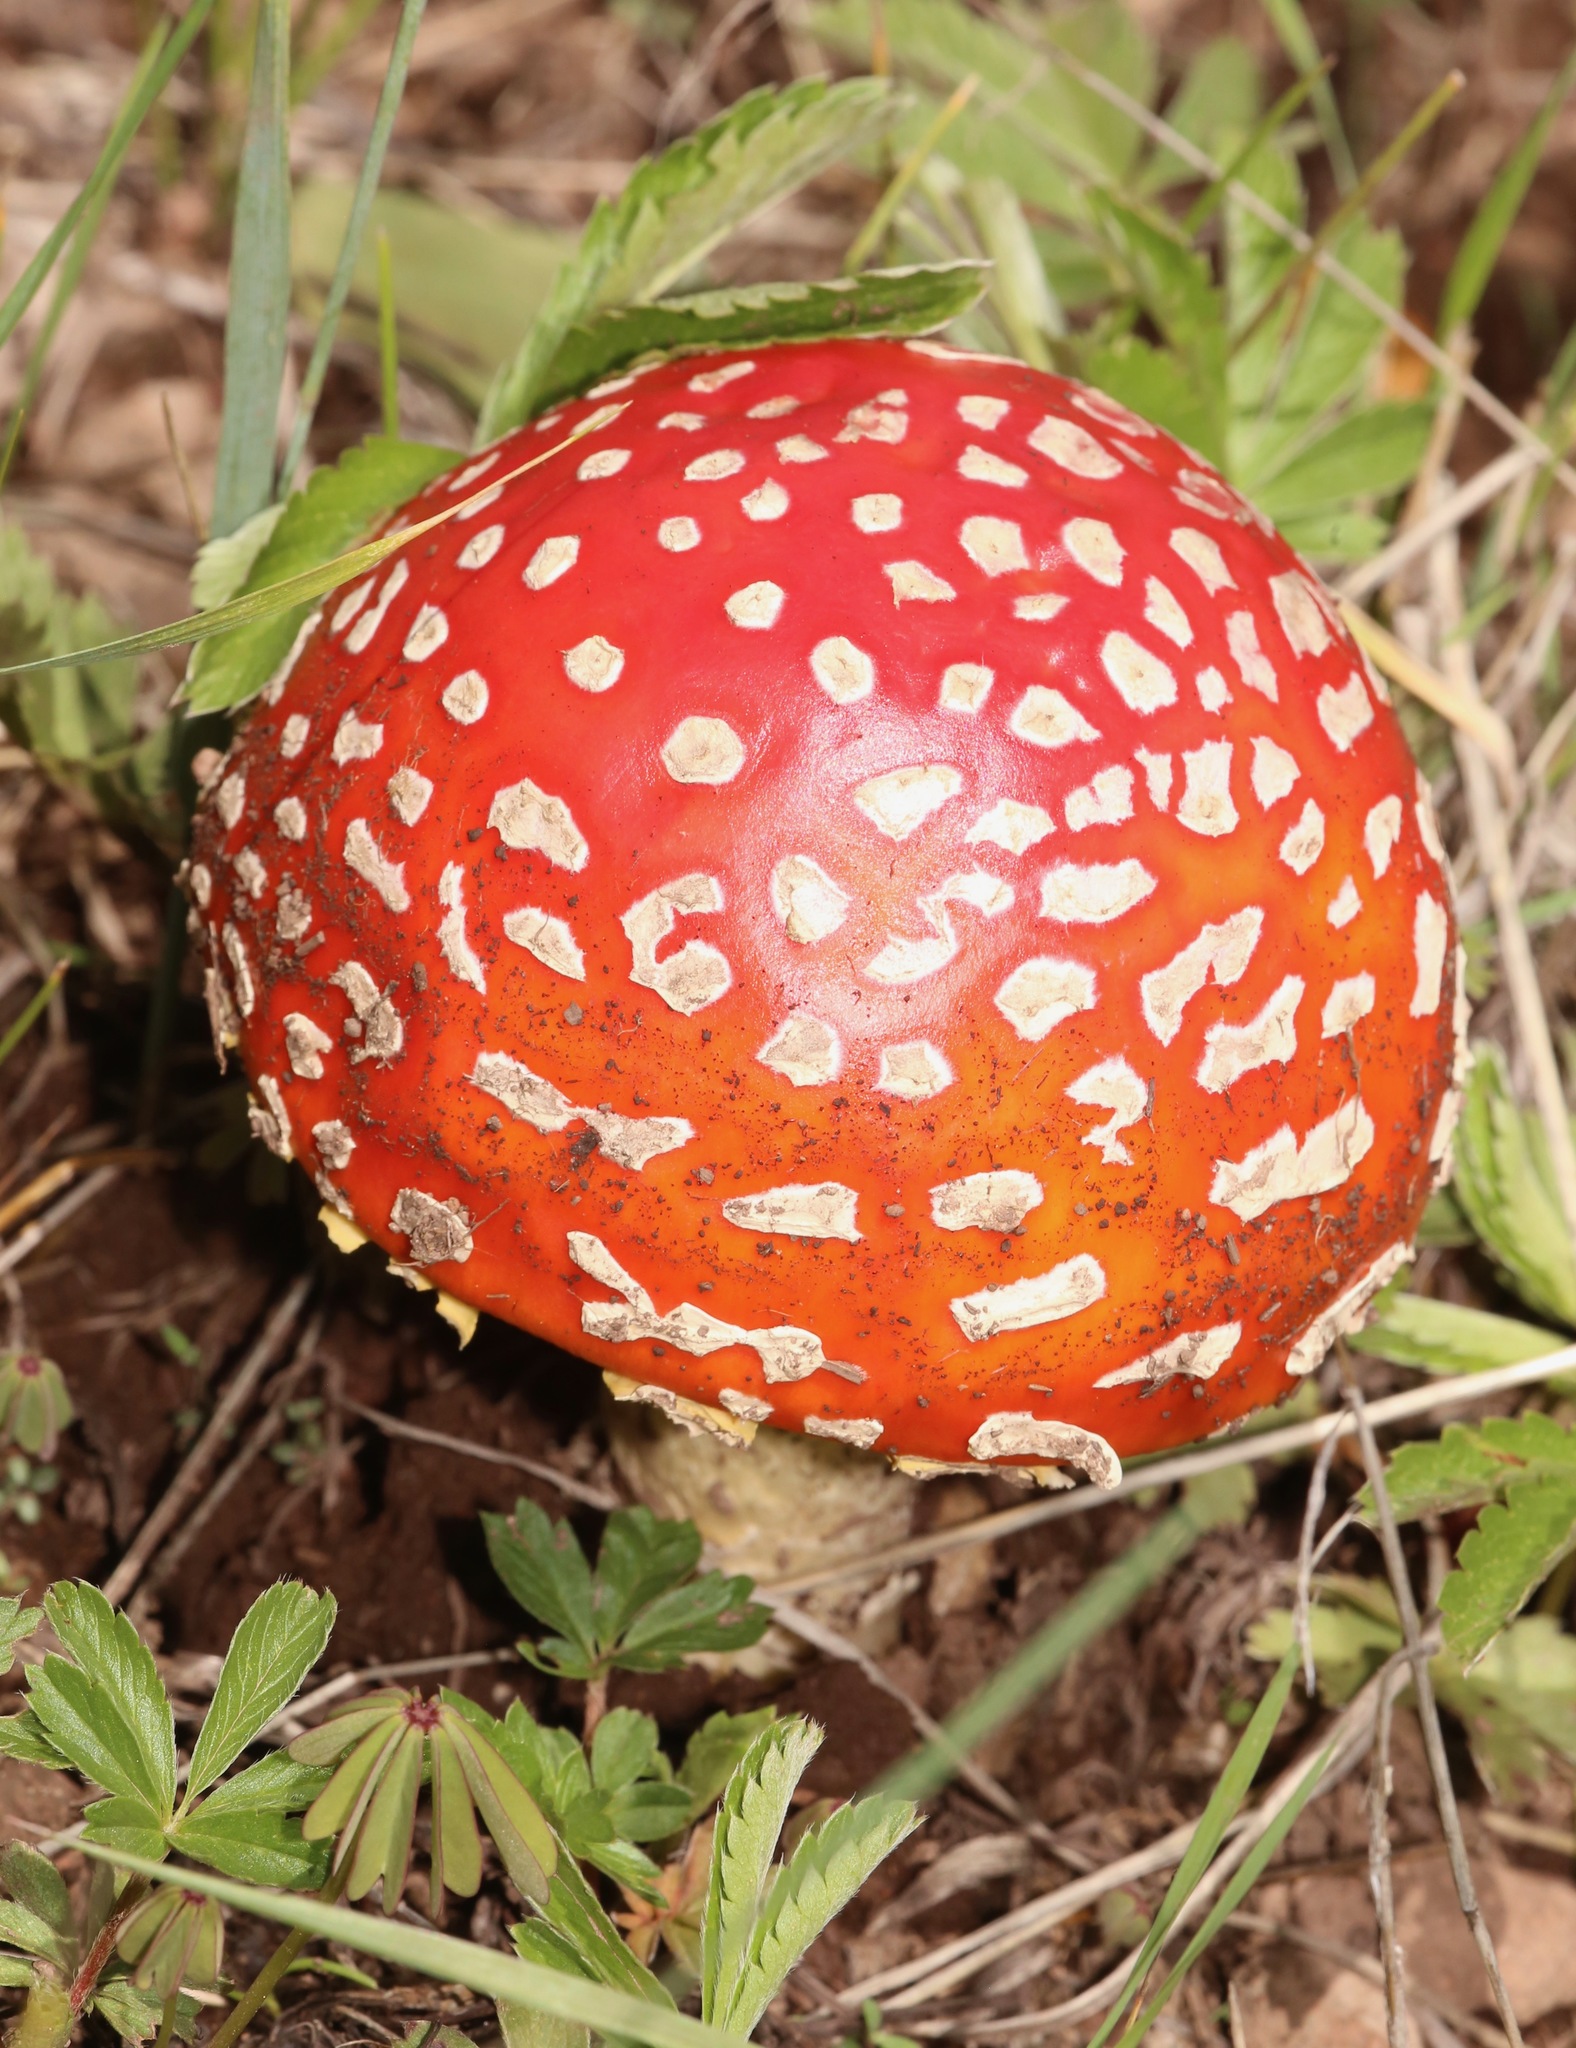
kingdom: Fungi
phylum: Basidiomycota
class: Agaricomycetes
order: Agaricales
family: Amanitaceae
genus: Amanita
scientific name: Amanita muscaria
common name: Fly agaric
